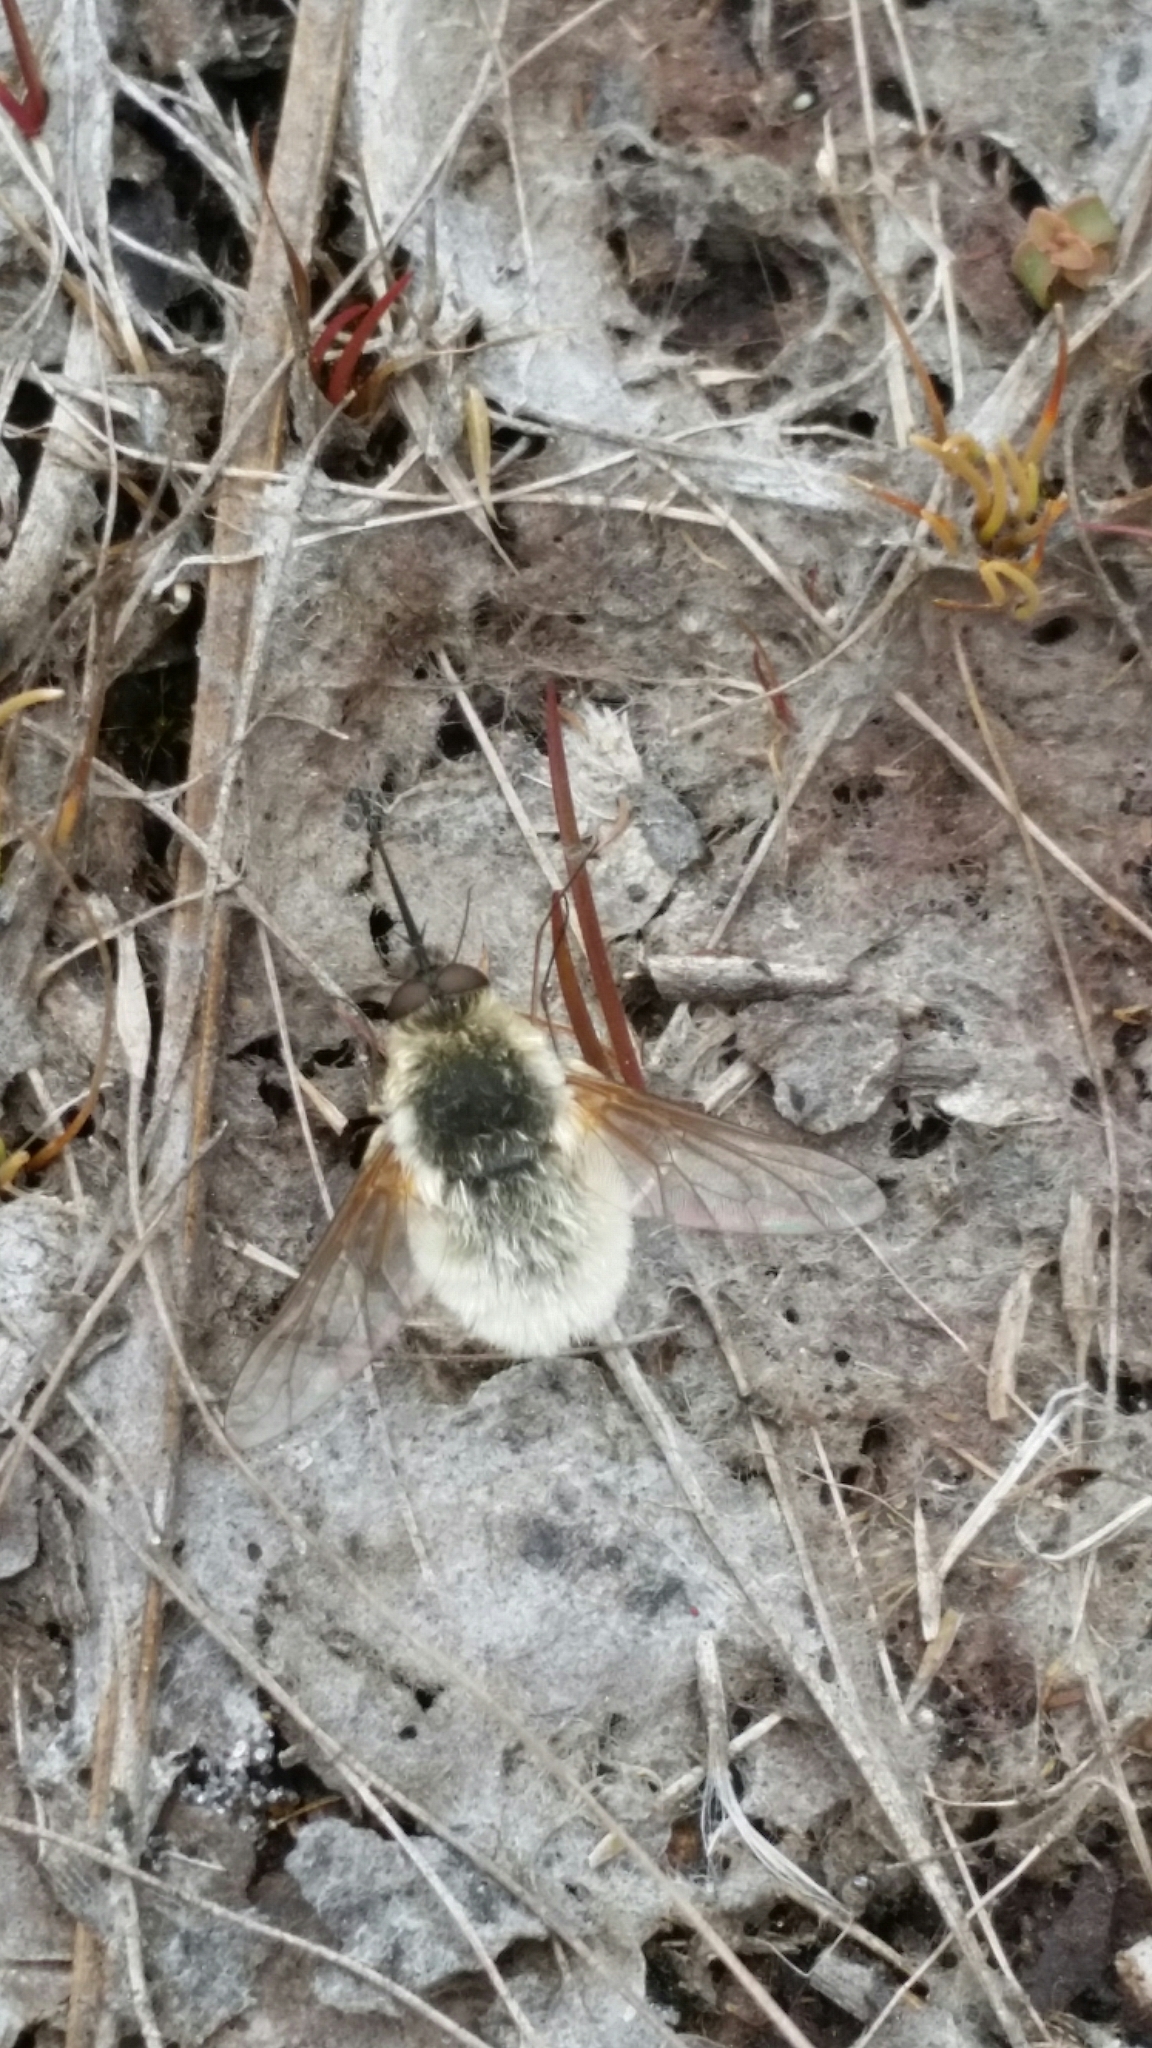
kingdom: Animalia
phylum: Arthropoda
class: Insecta
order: Diptera
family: Bombyliidae
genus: Systoechus
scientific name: Systoechus candidulus
